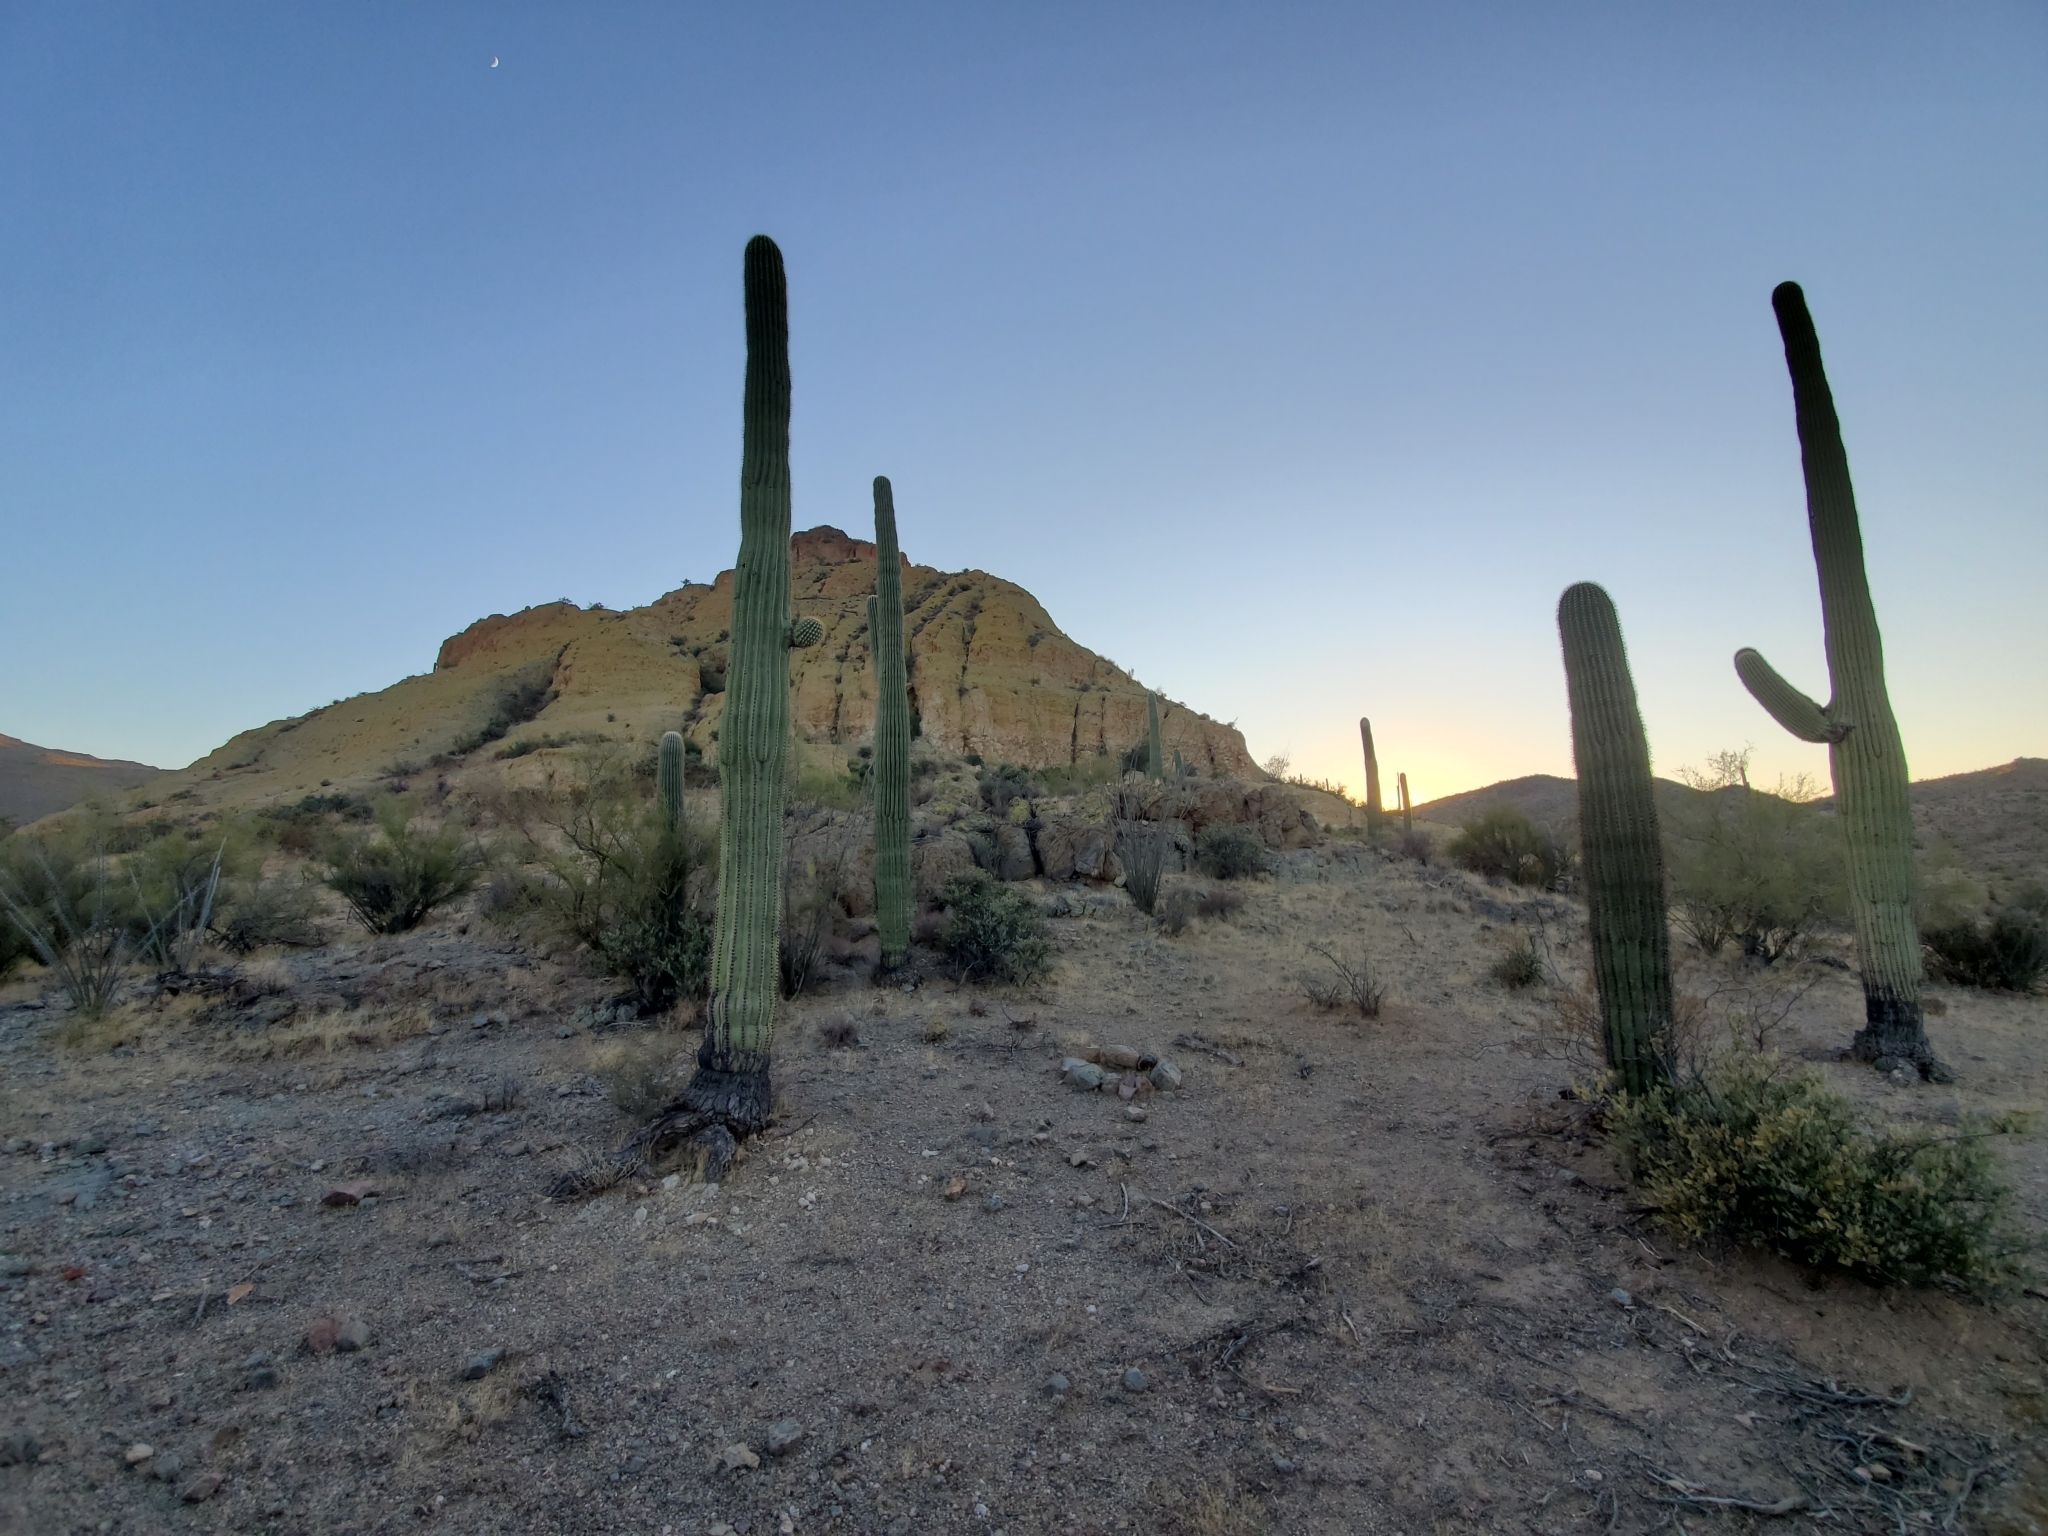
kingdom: Plantae
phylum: Tracheophyta
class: Magnoliopsida
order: Caryophyllales
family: Cactaceae
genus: Carnegiea
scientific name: Carnegiea gigantea
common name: Saguaro
